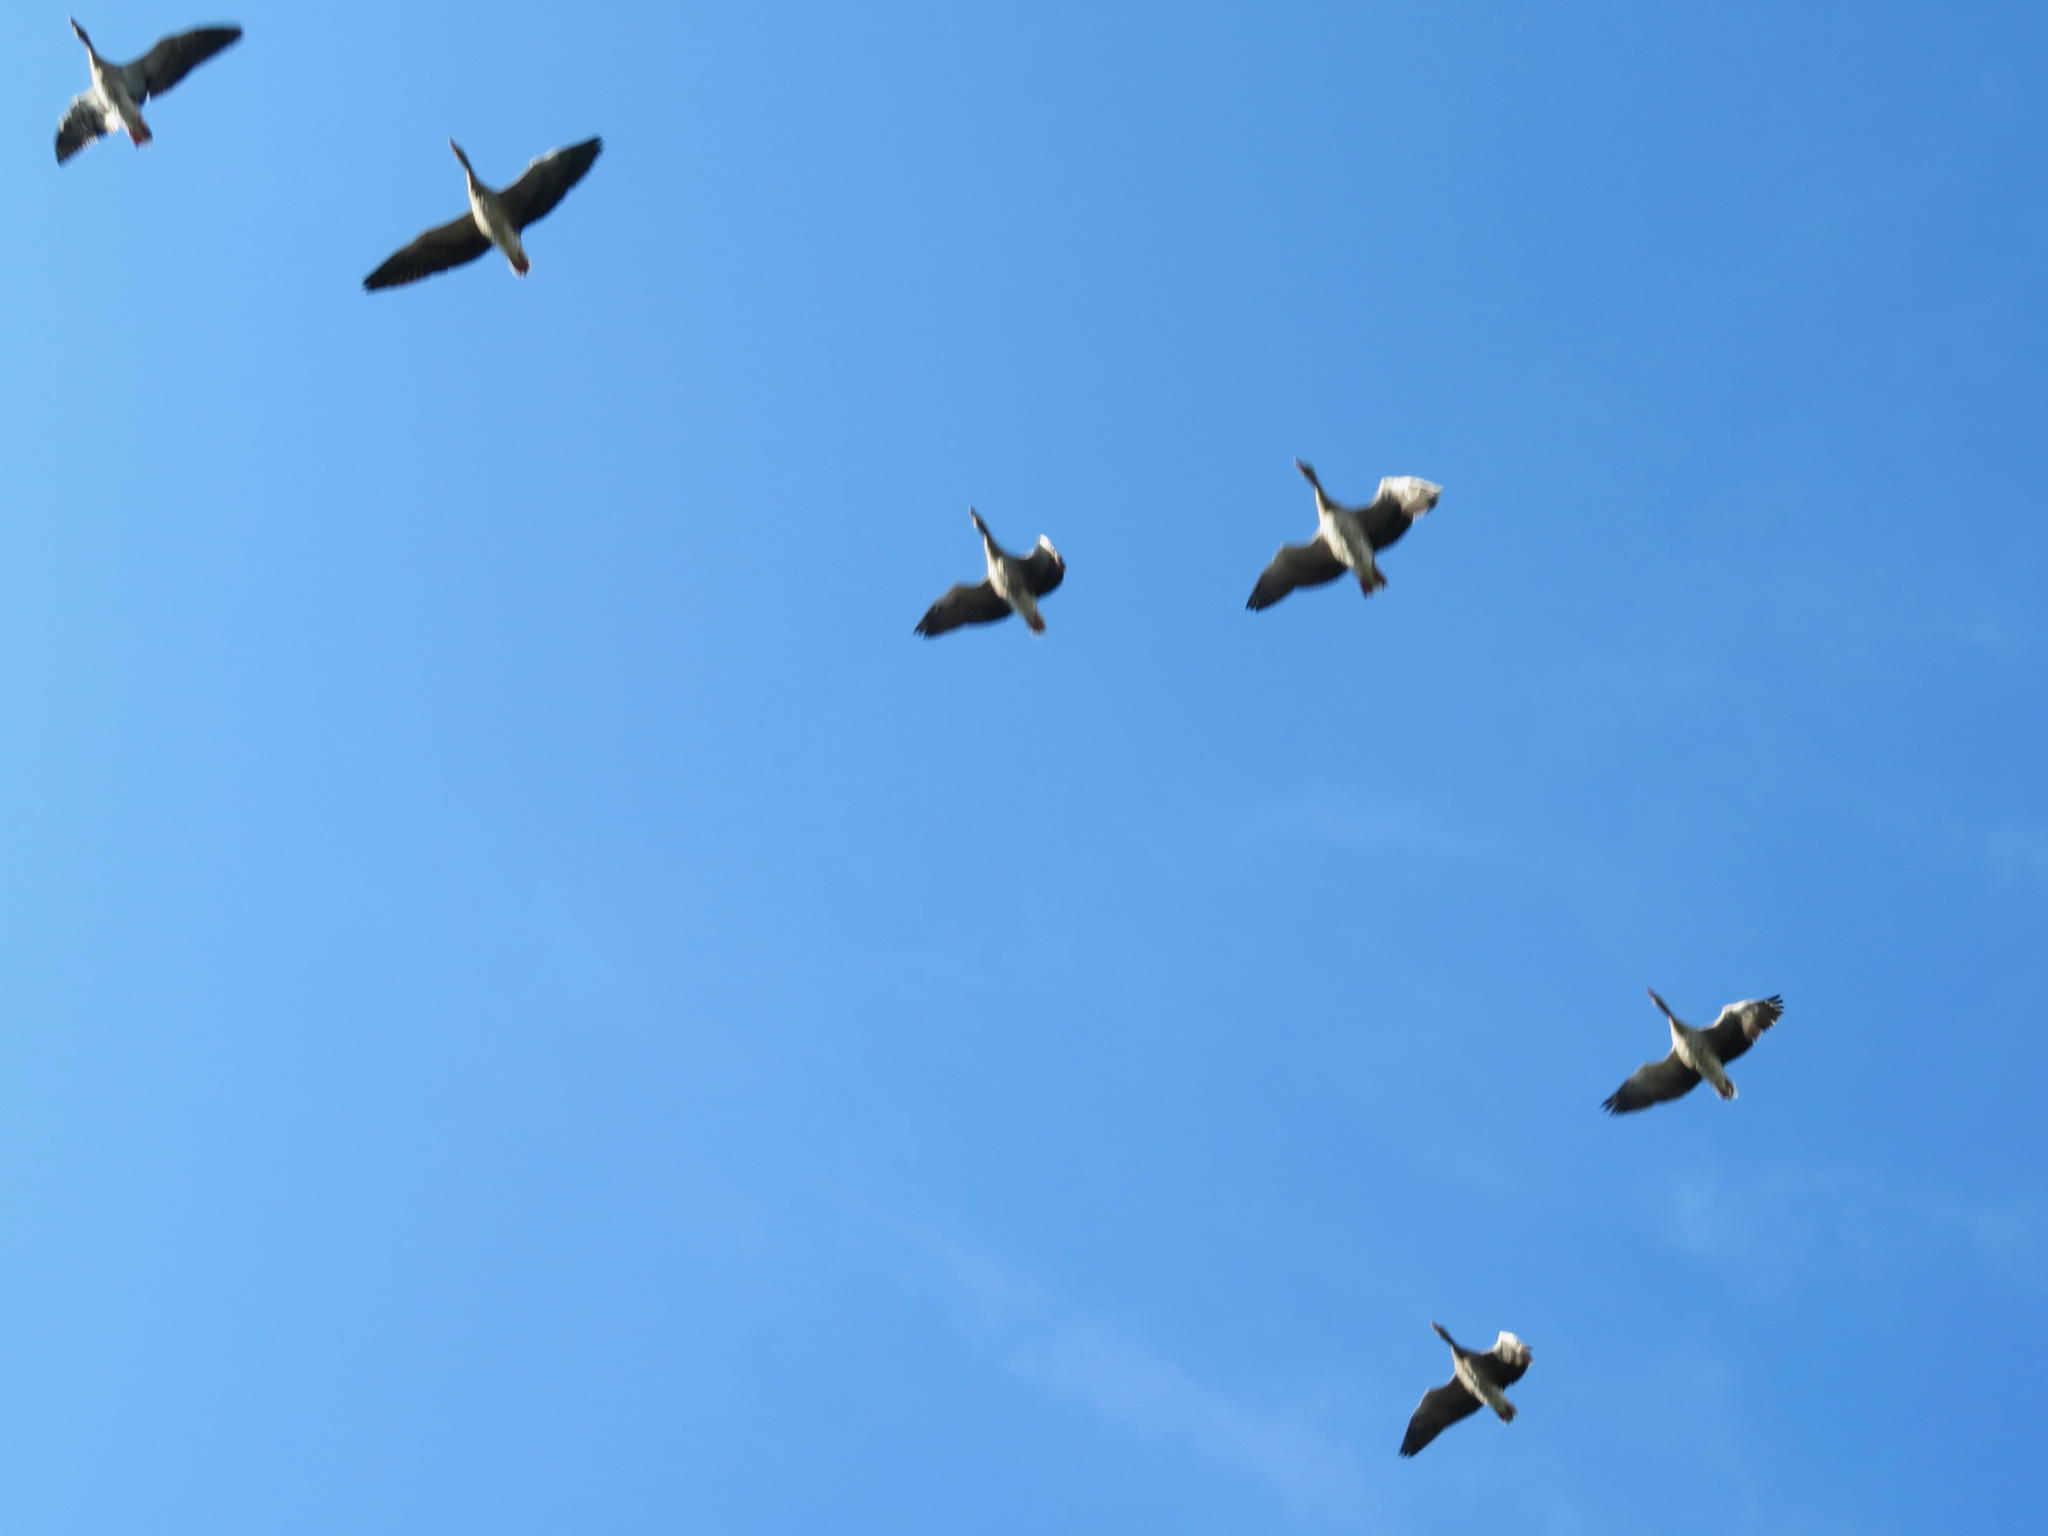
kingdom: Animalia
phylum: Chordata
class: Aves
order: Anseriformes
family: Anatidae
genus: Anser
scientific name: Anser anser
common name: Greylag goose
